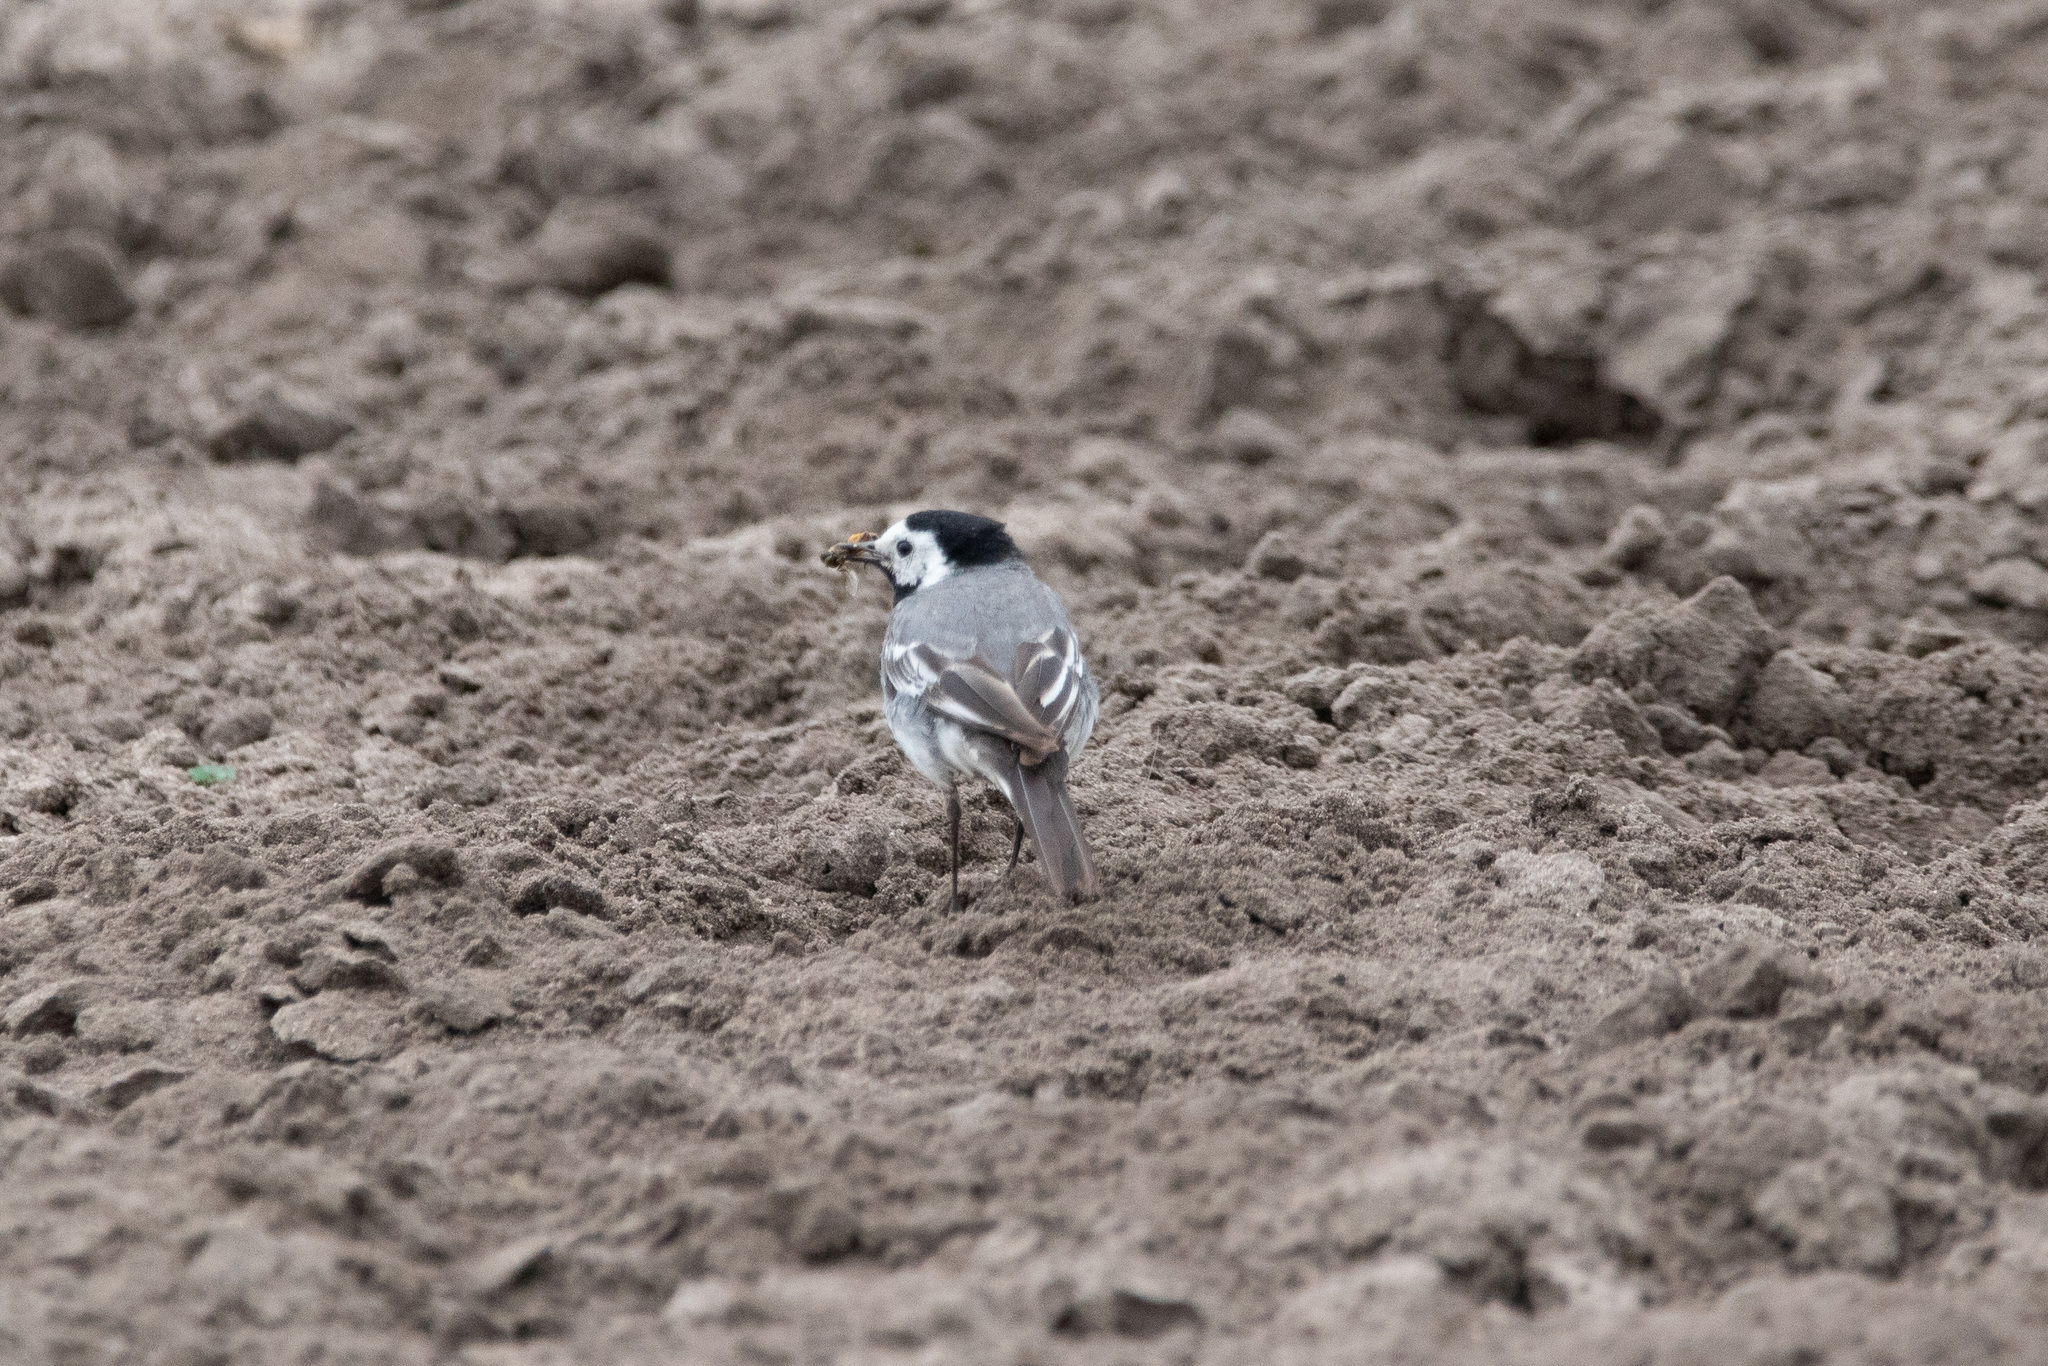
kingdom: Animalia
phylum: Chordata
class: Aves
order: Passeriformes
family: Motacillidae
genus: Motacilla
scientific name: Motacilla alba
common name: White wagtail
